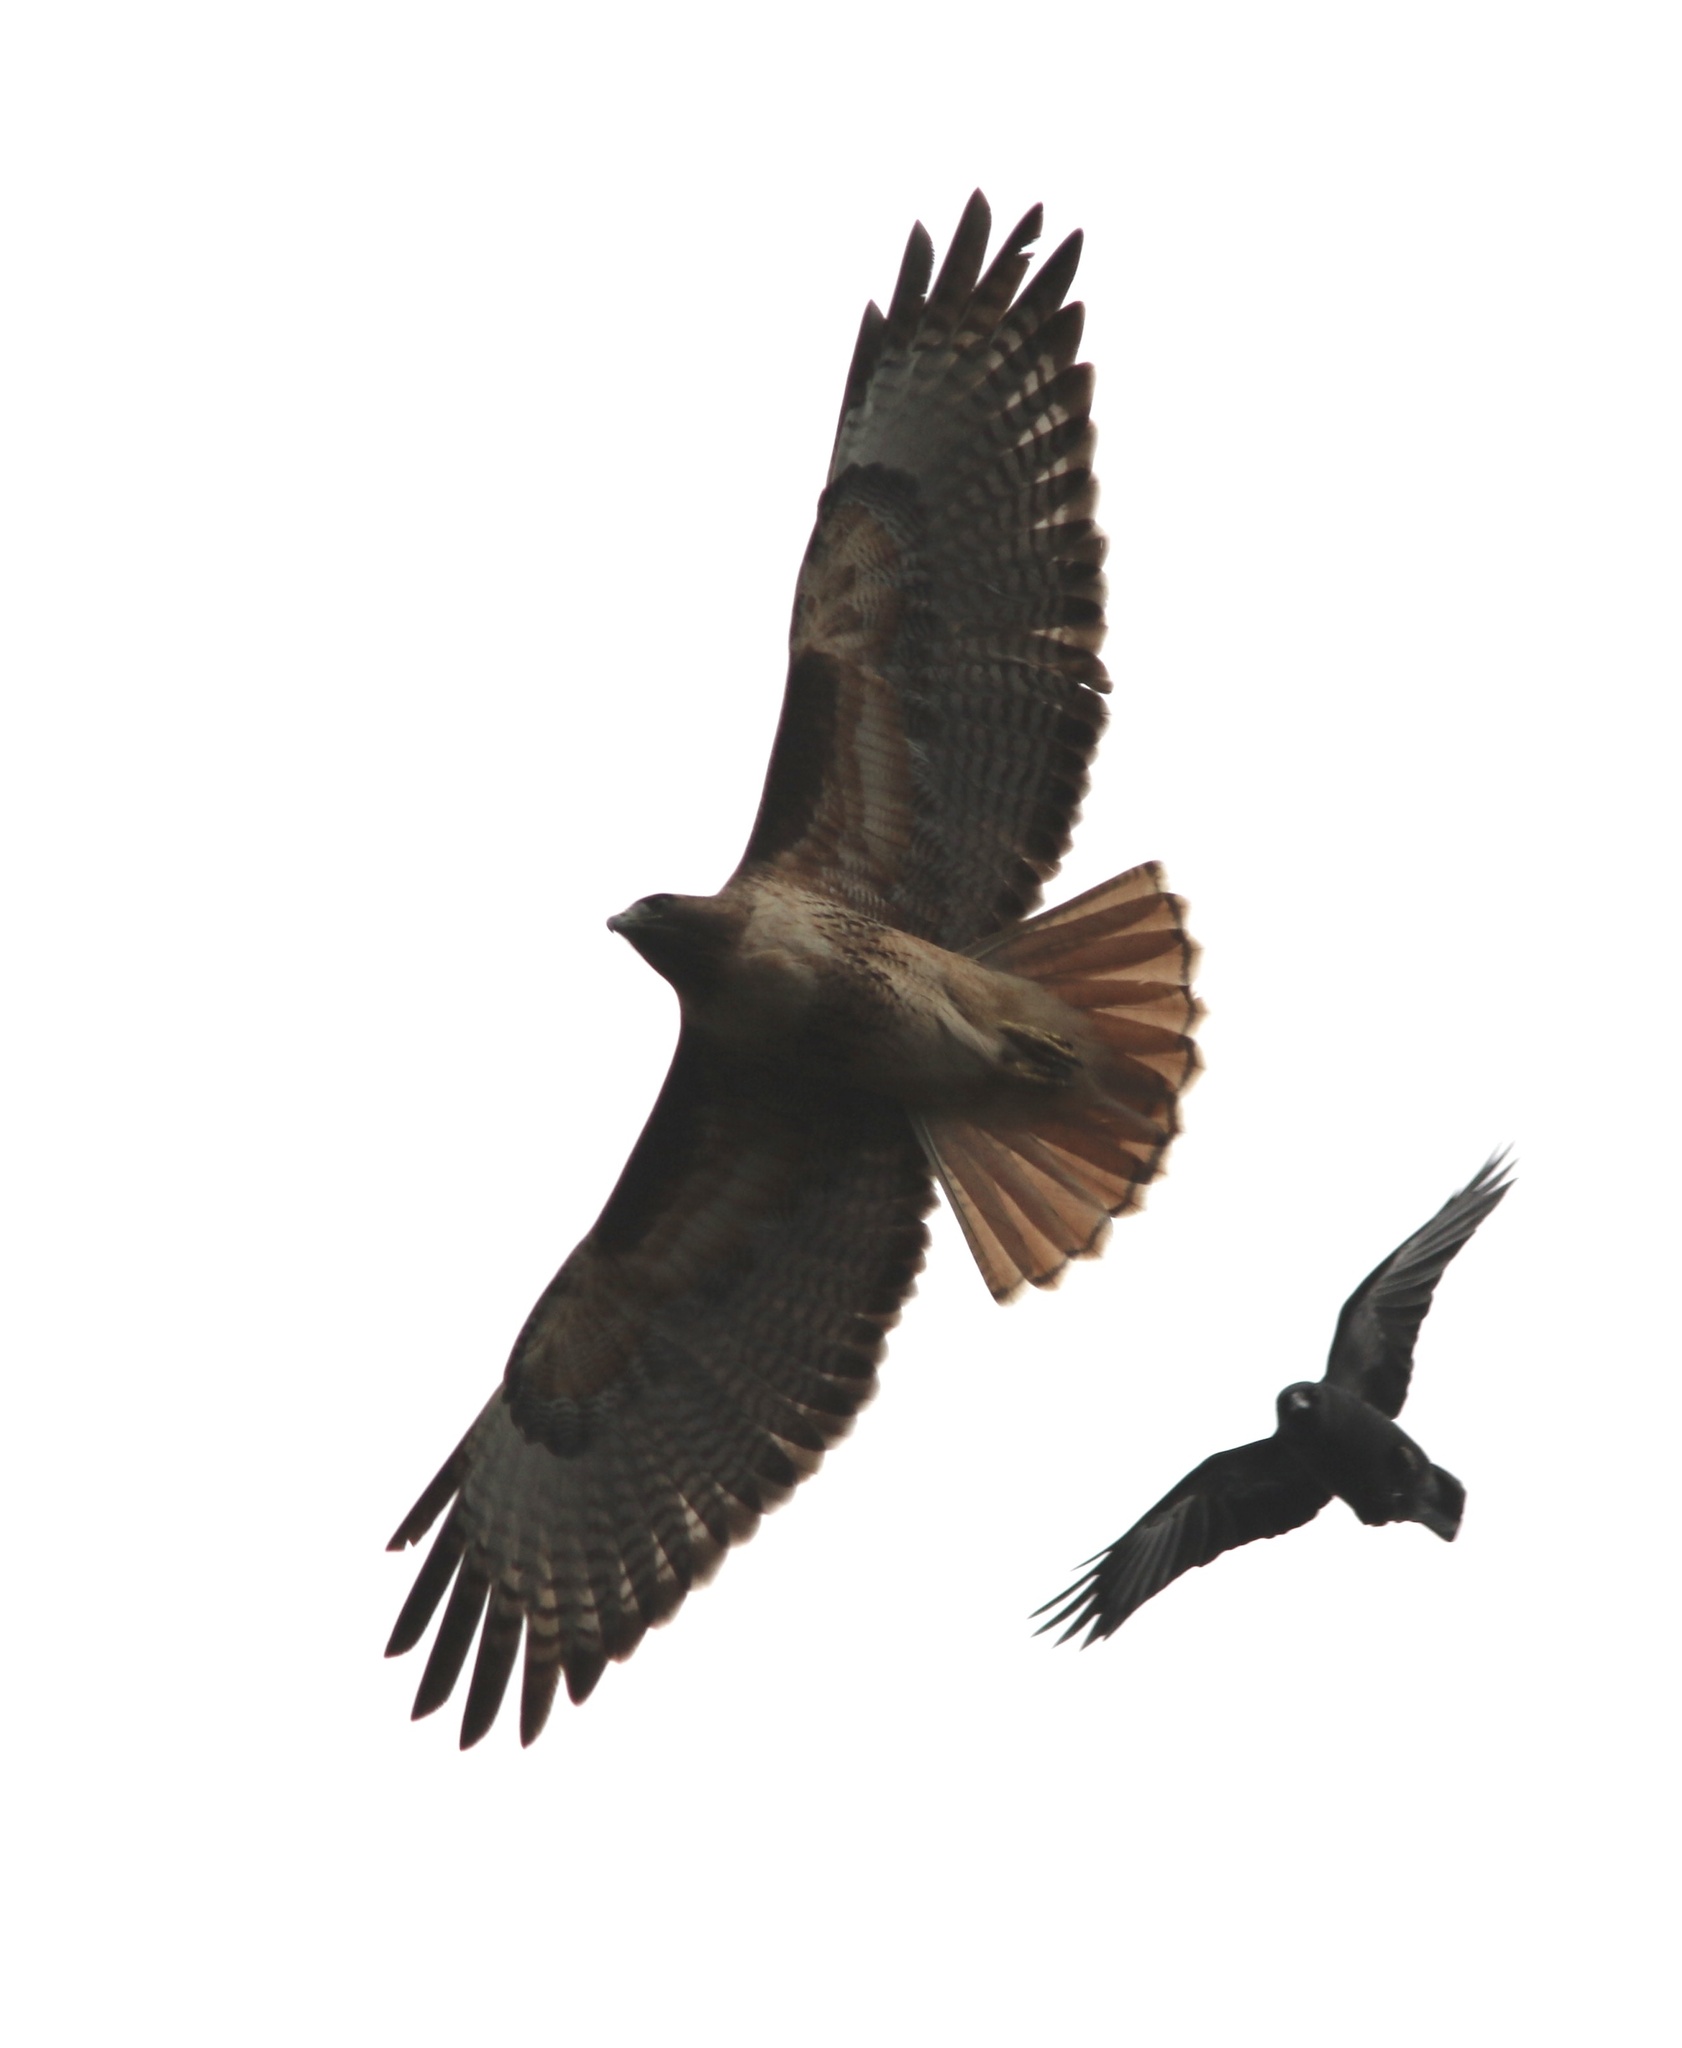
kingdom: Animalia
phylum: Chordata
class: Aves
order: Accipitriformes
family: Accipitridae
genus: Buteo
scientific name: Buteo jamaicensis
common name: Red-tailed hawk
